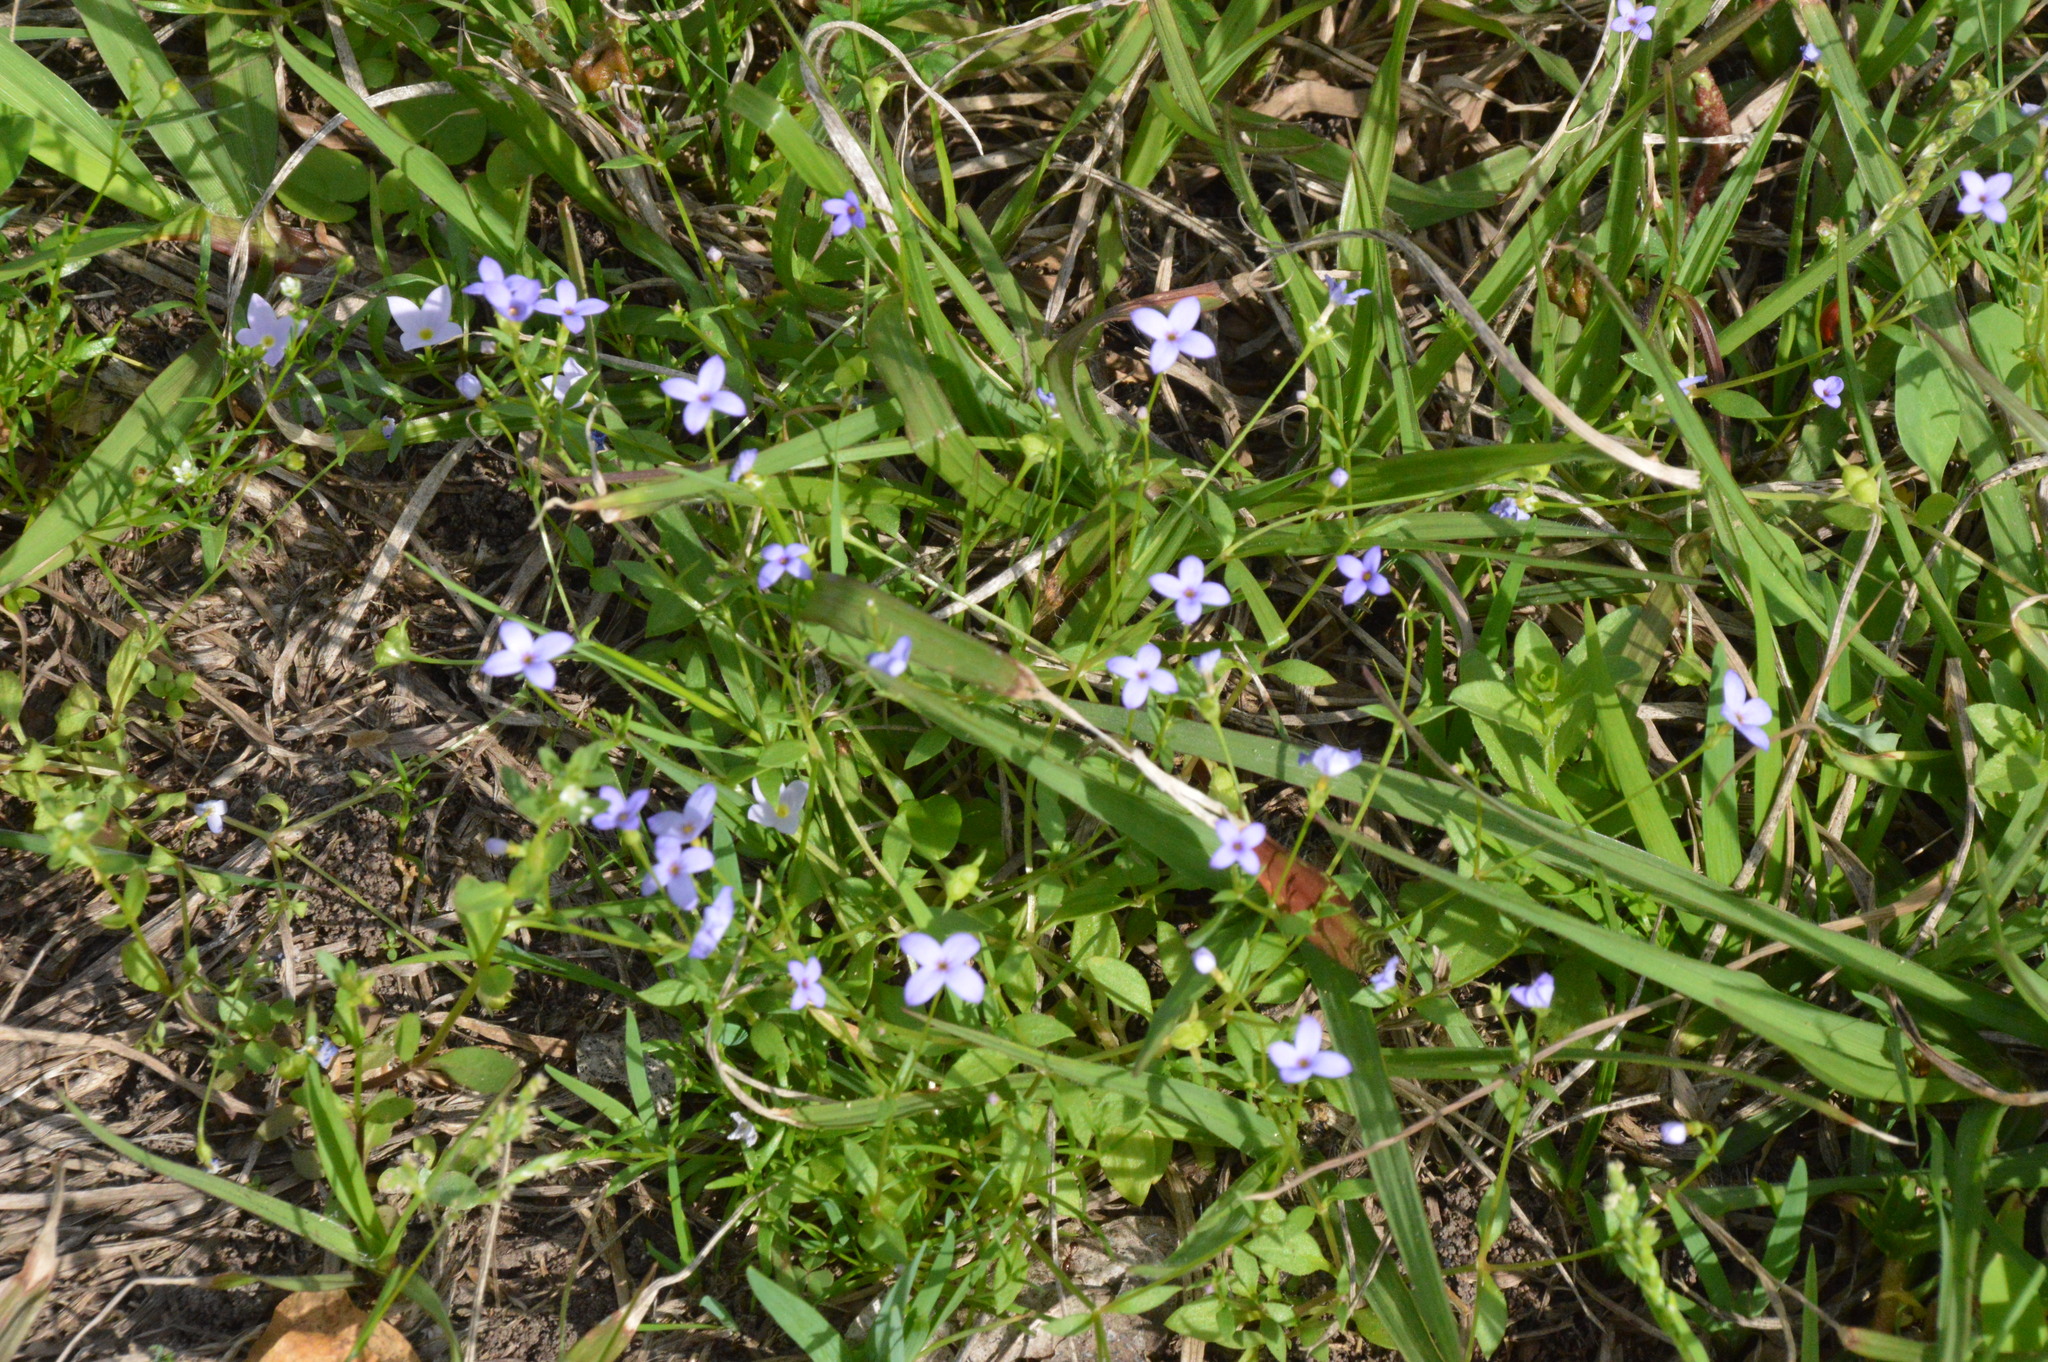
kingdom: Plantae
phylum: Tracheophyta
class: Magnoliopsida
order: Gentianales
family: Rubiaceae
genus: Houstonia
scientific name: Houstonia pusilla
